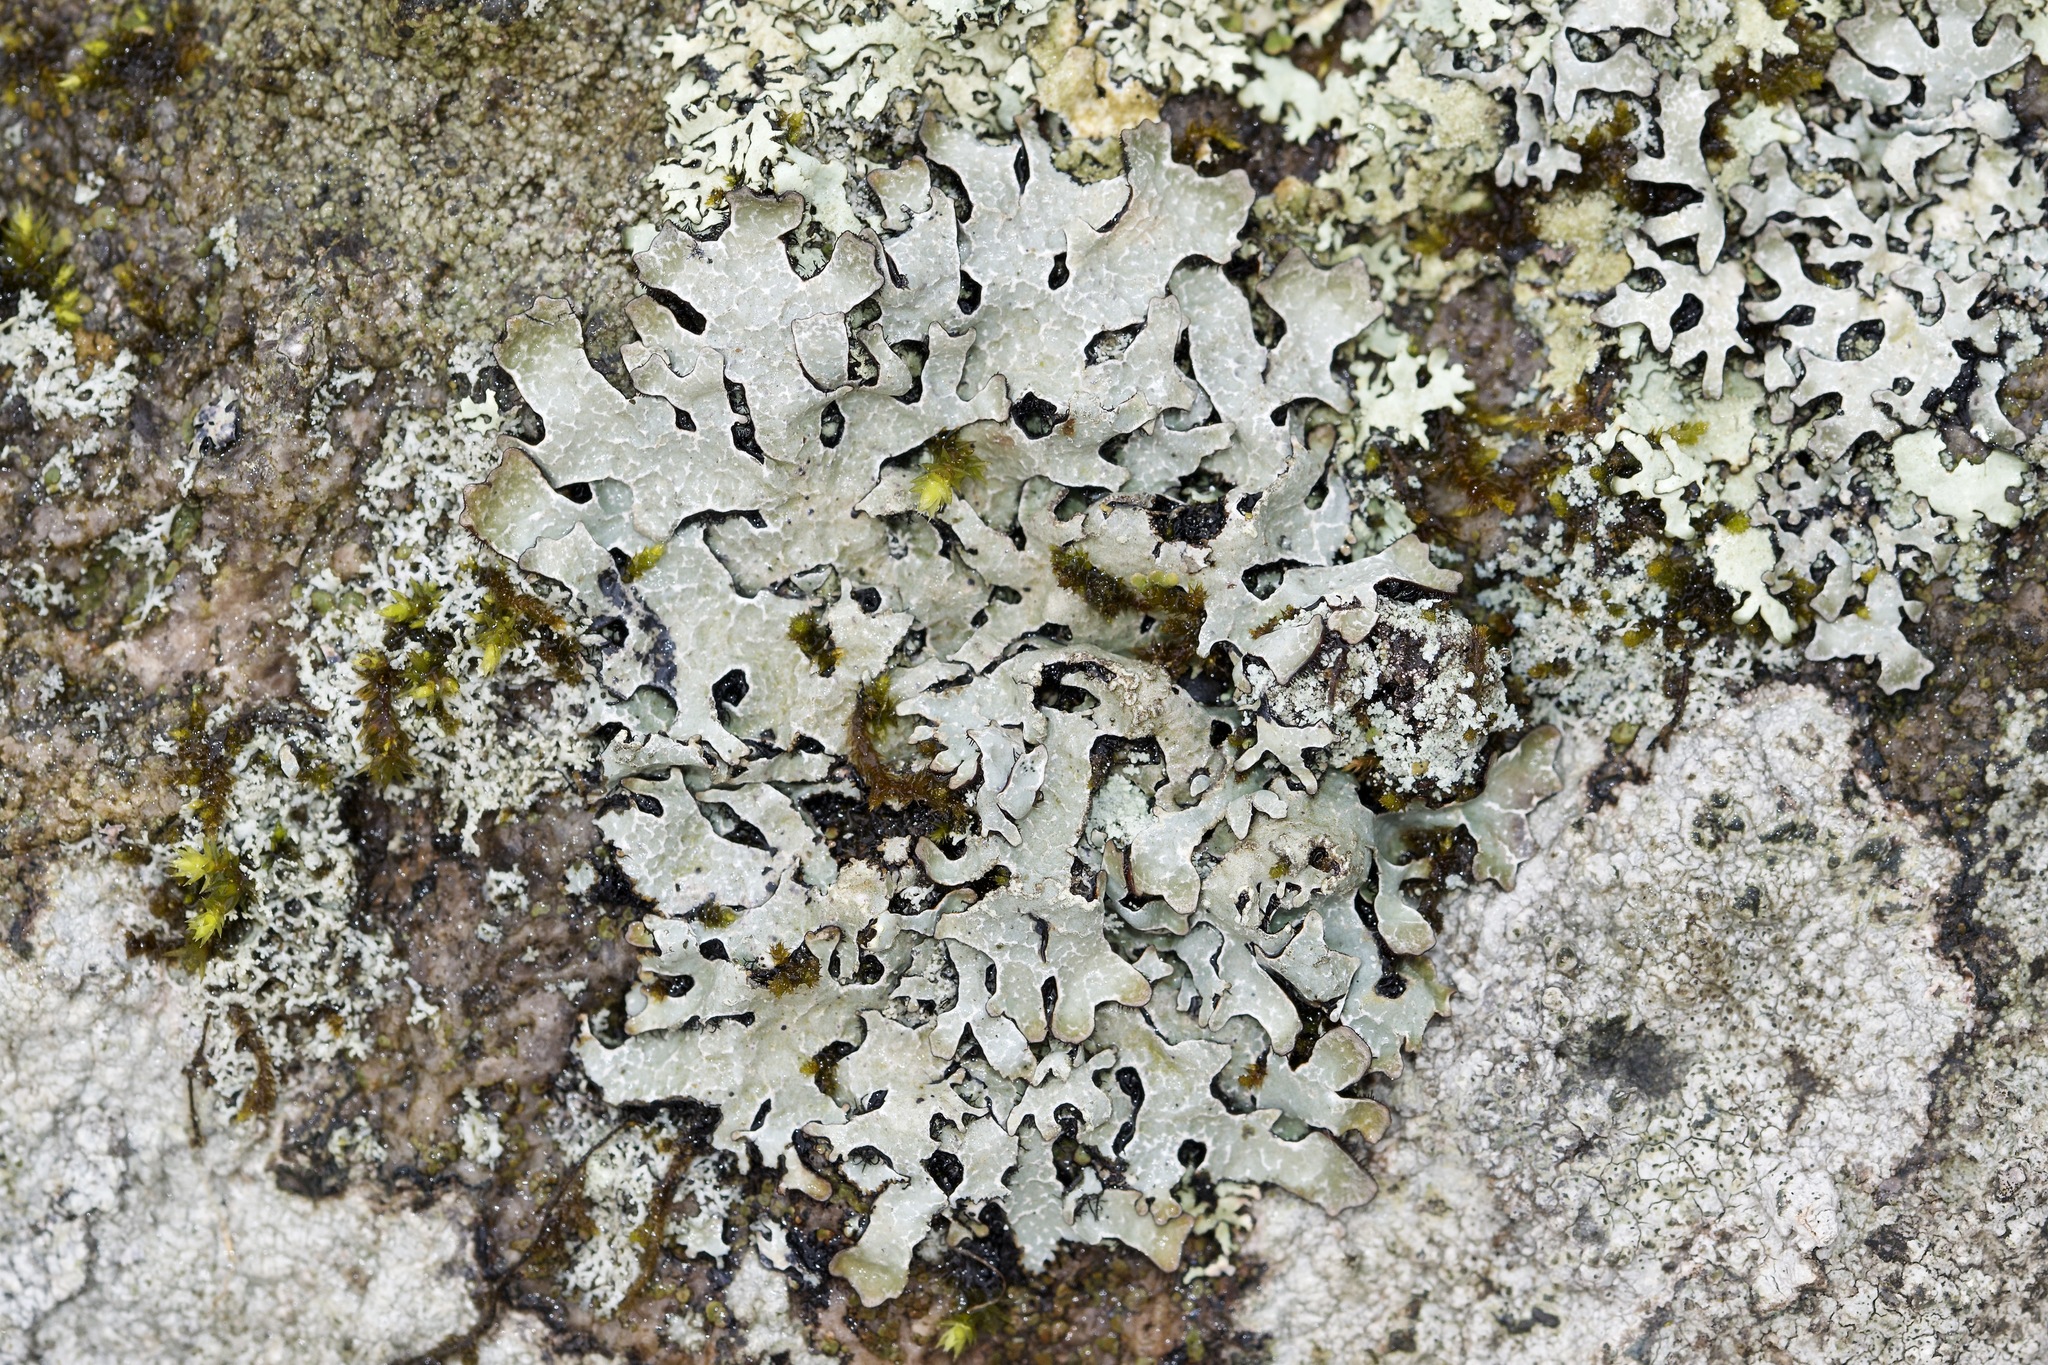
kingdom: Fungi
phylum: Ascomycota
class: Lecanoromycetes
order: Lecanorales
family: Parmeliaceae
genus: Parmelia
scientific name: Parmelia sulcata
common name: Netted shield lichen
